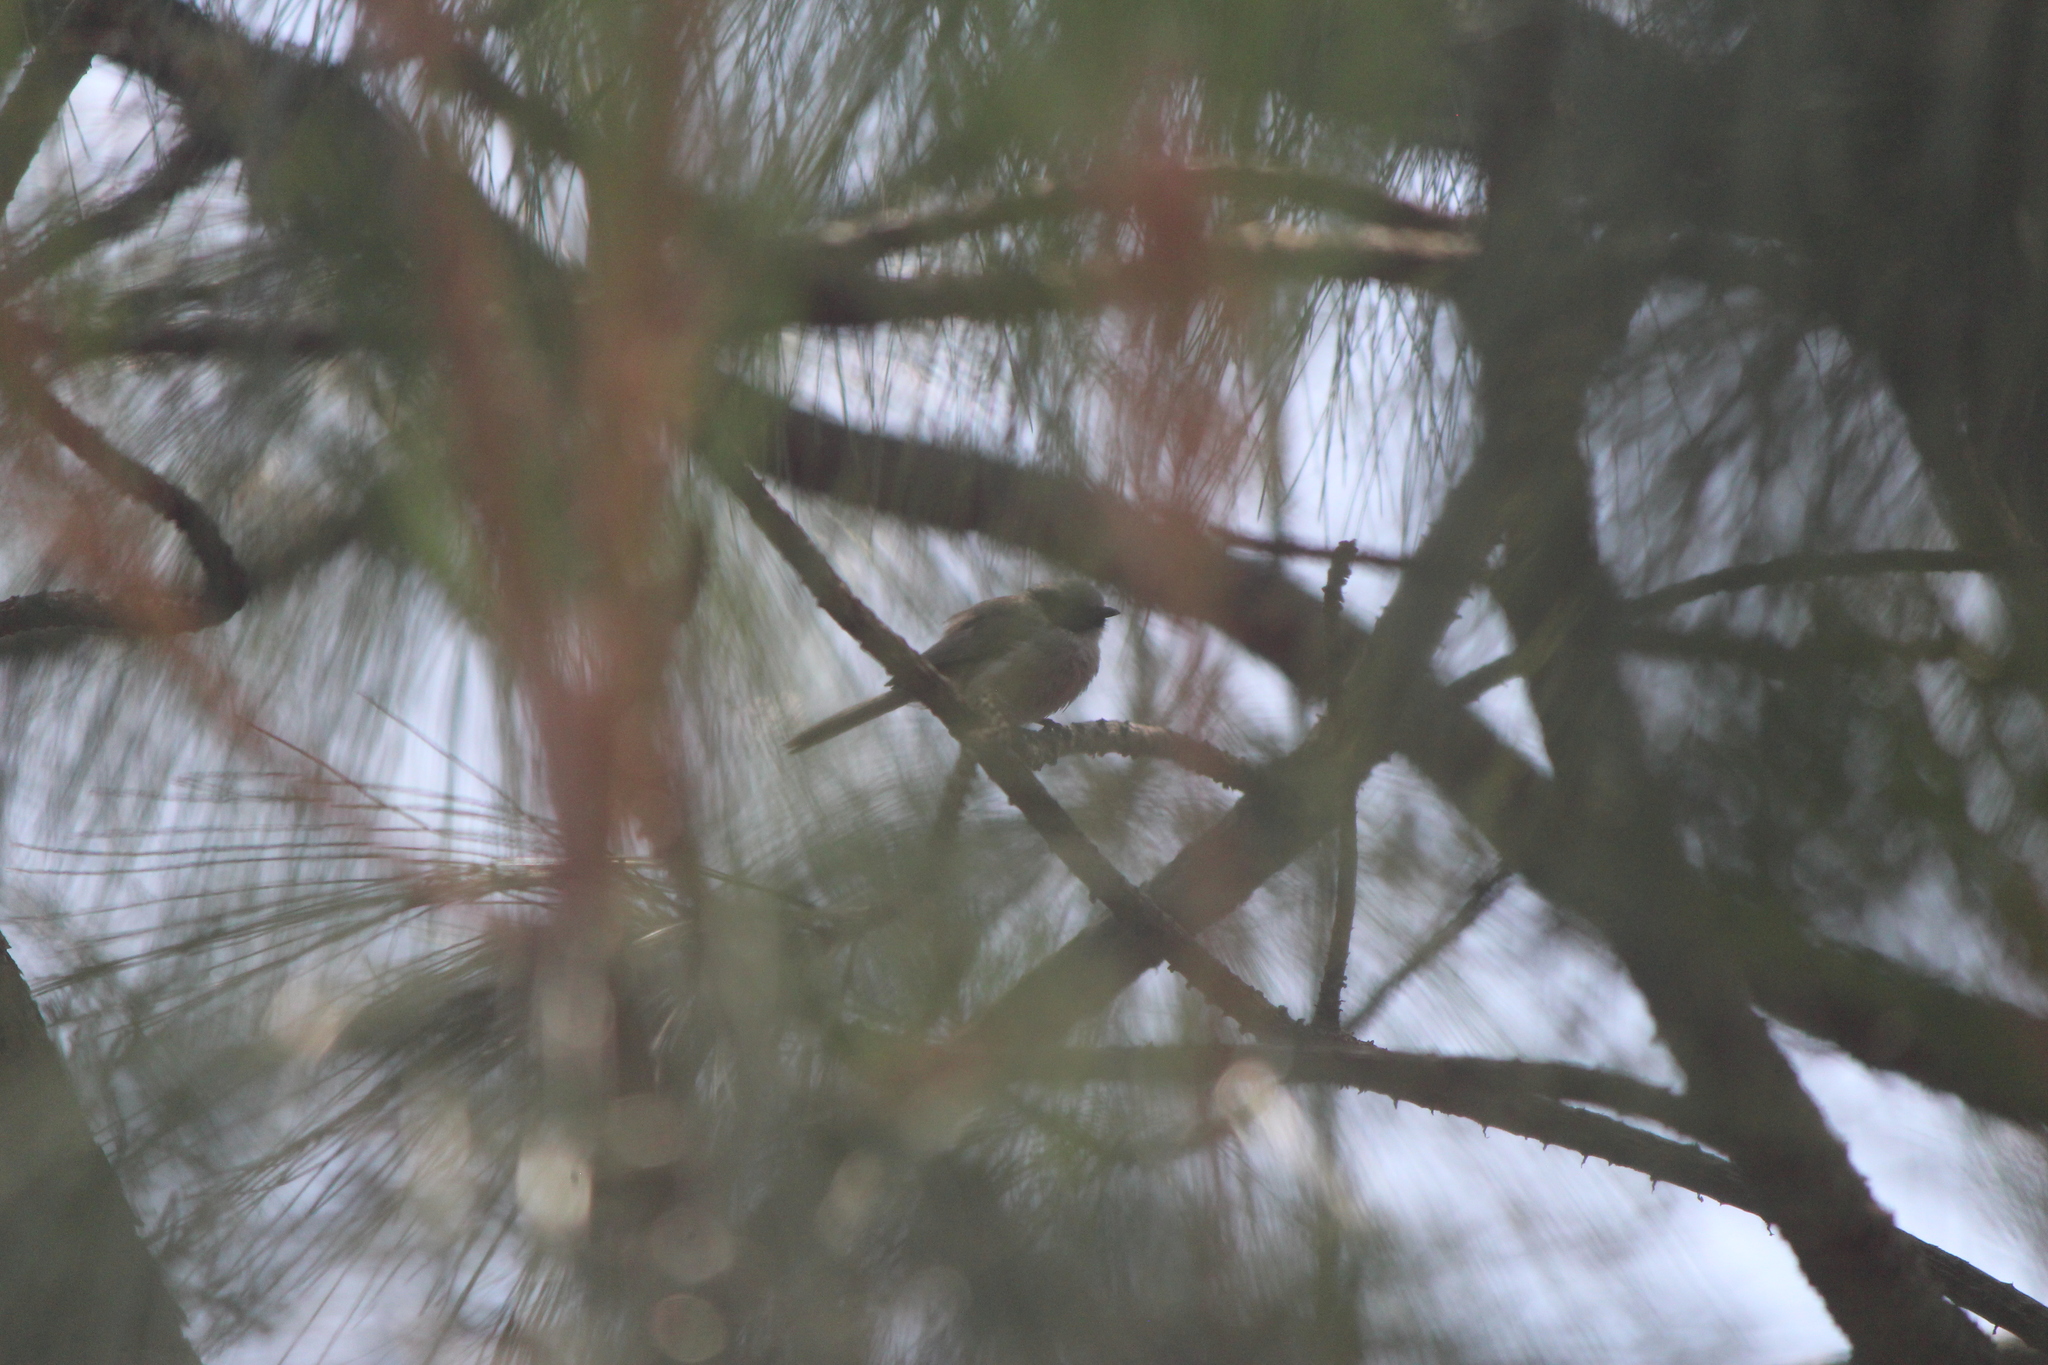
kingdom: Animalia
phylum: Chordata
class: Aves
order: Passeriformes
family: Aegithalidae
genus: Psaltriparus
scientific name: Psaltriparus minimus
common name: American bushtit
